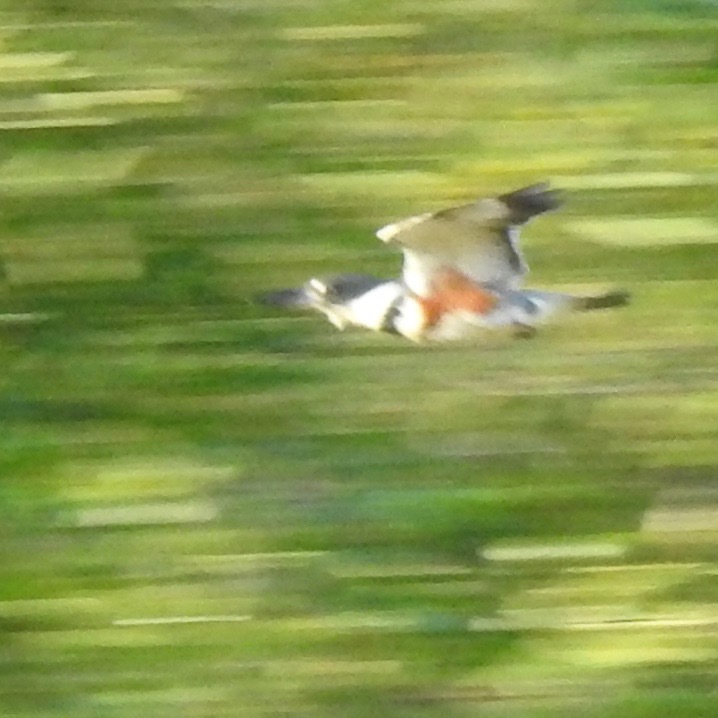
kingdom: Animalia
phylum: Chordata
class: Aves
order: Coraciiformes
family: Alcedinidae
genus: Megaceryle
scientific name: Megaceryle alcyon
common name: Belted kingfisher
